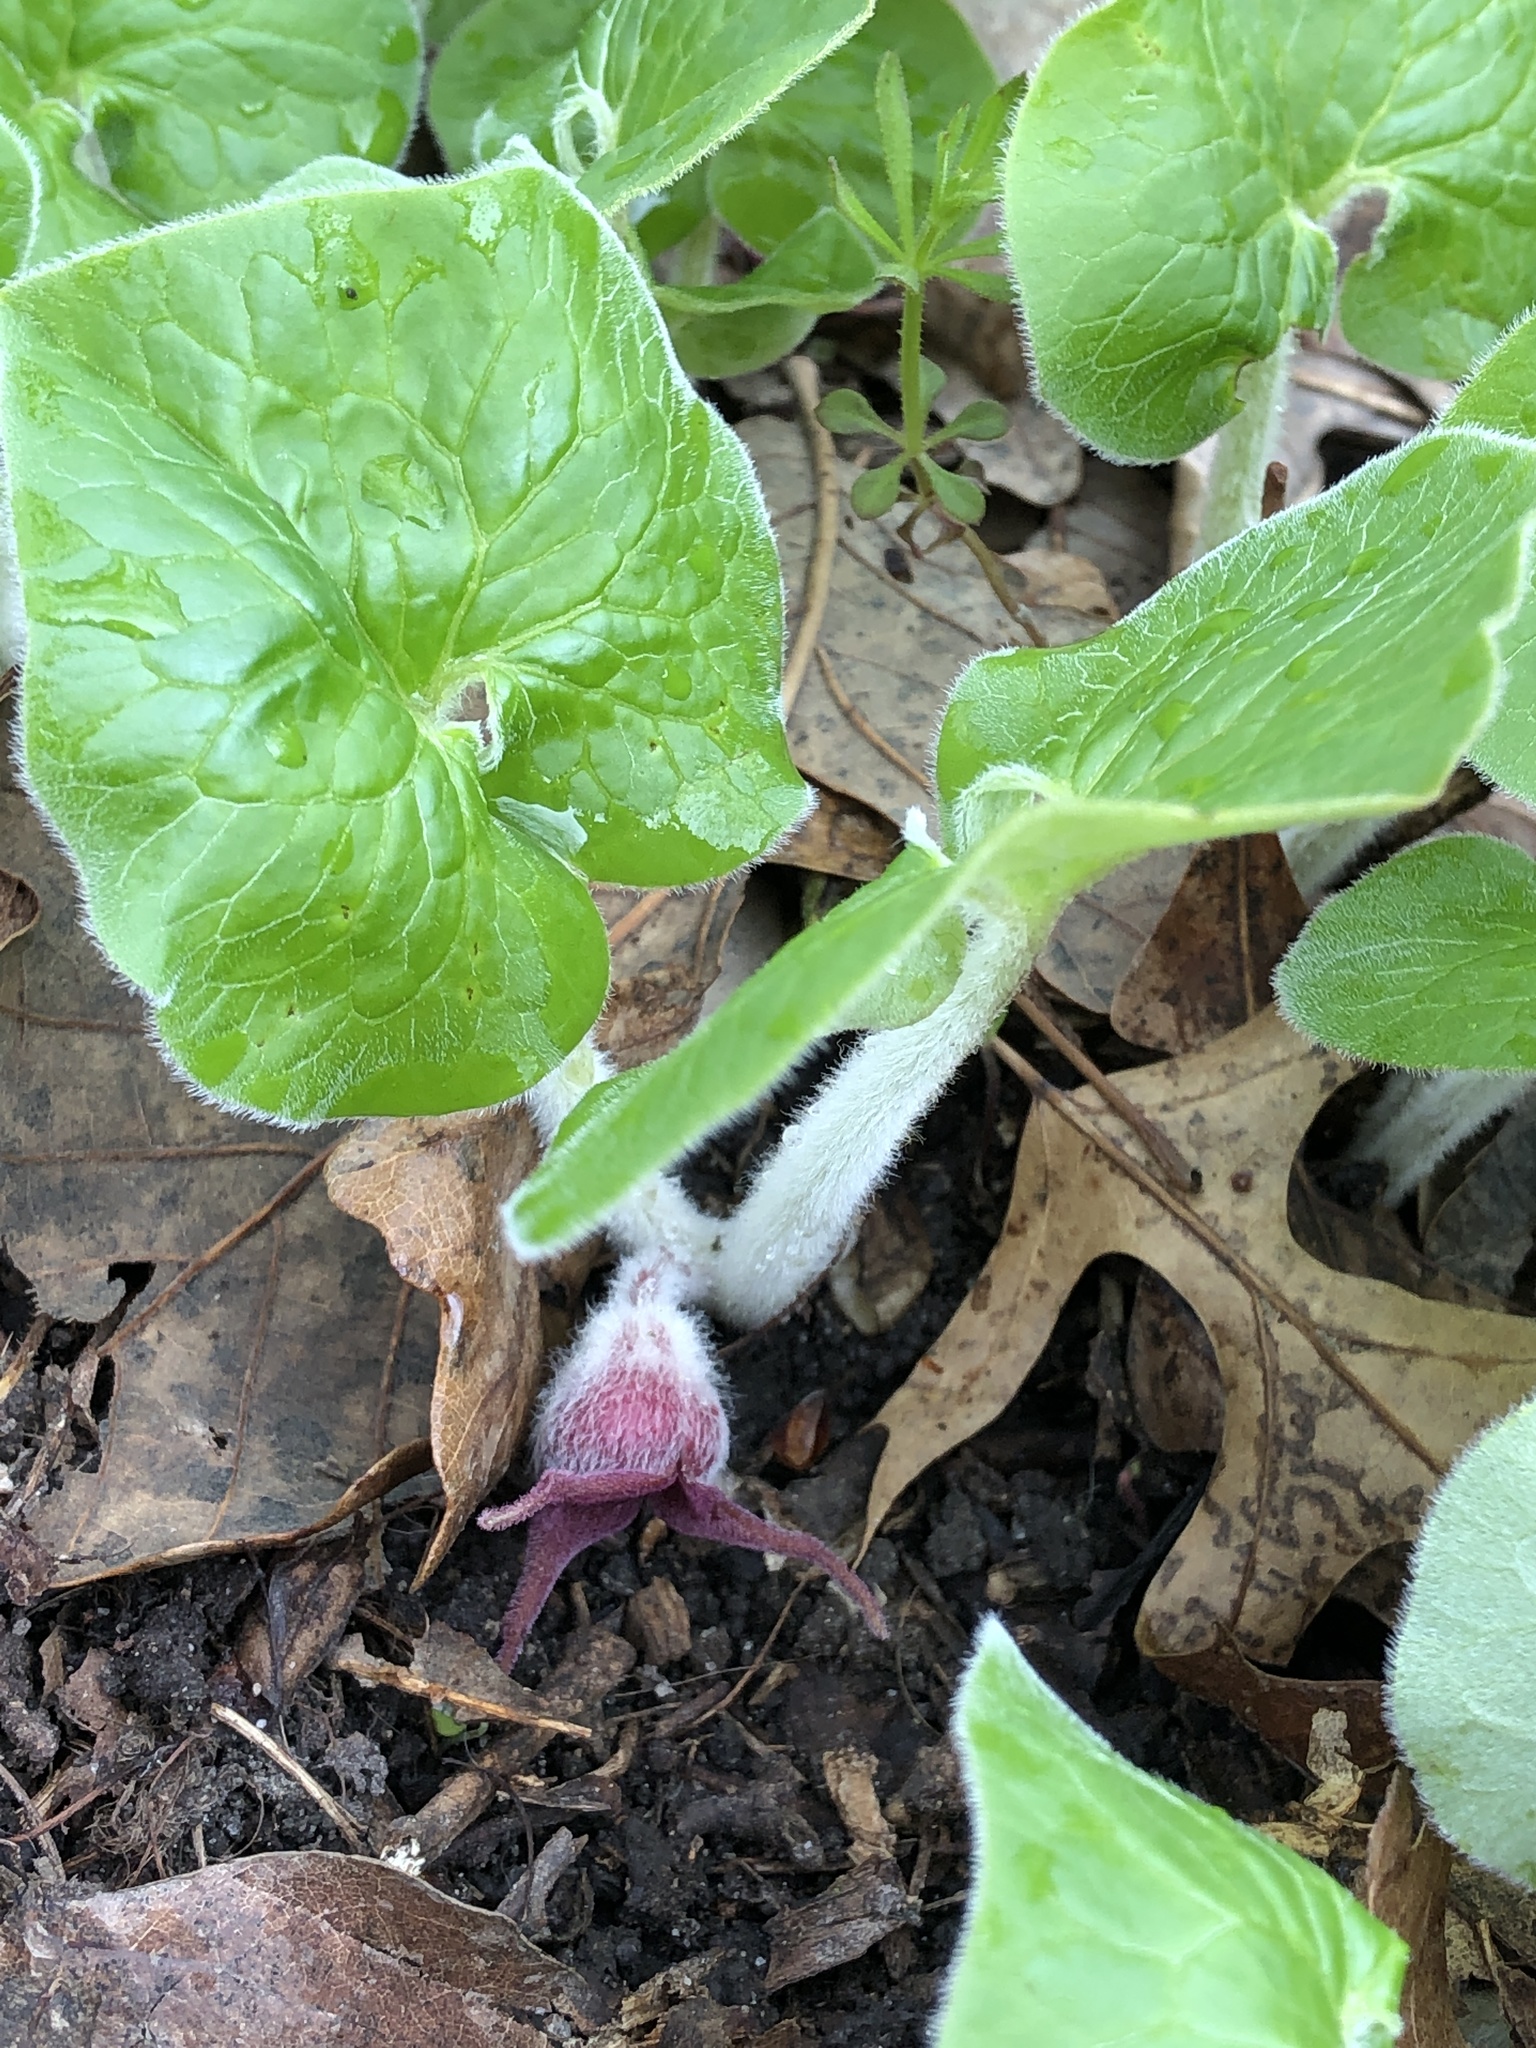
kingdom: Plantae
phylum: Tracheophyta
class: Magnoliopsida
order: Piperales
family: Aristolochiaceae
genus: Asarum
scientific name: Asarum canadense
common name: Wild ginger
